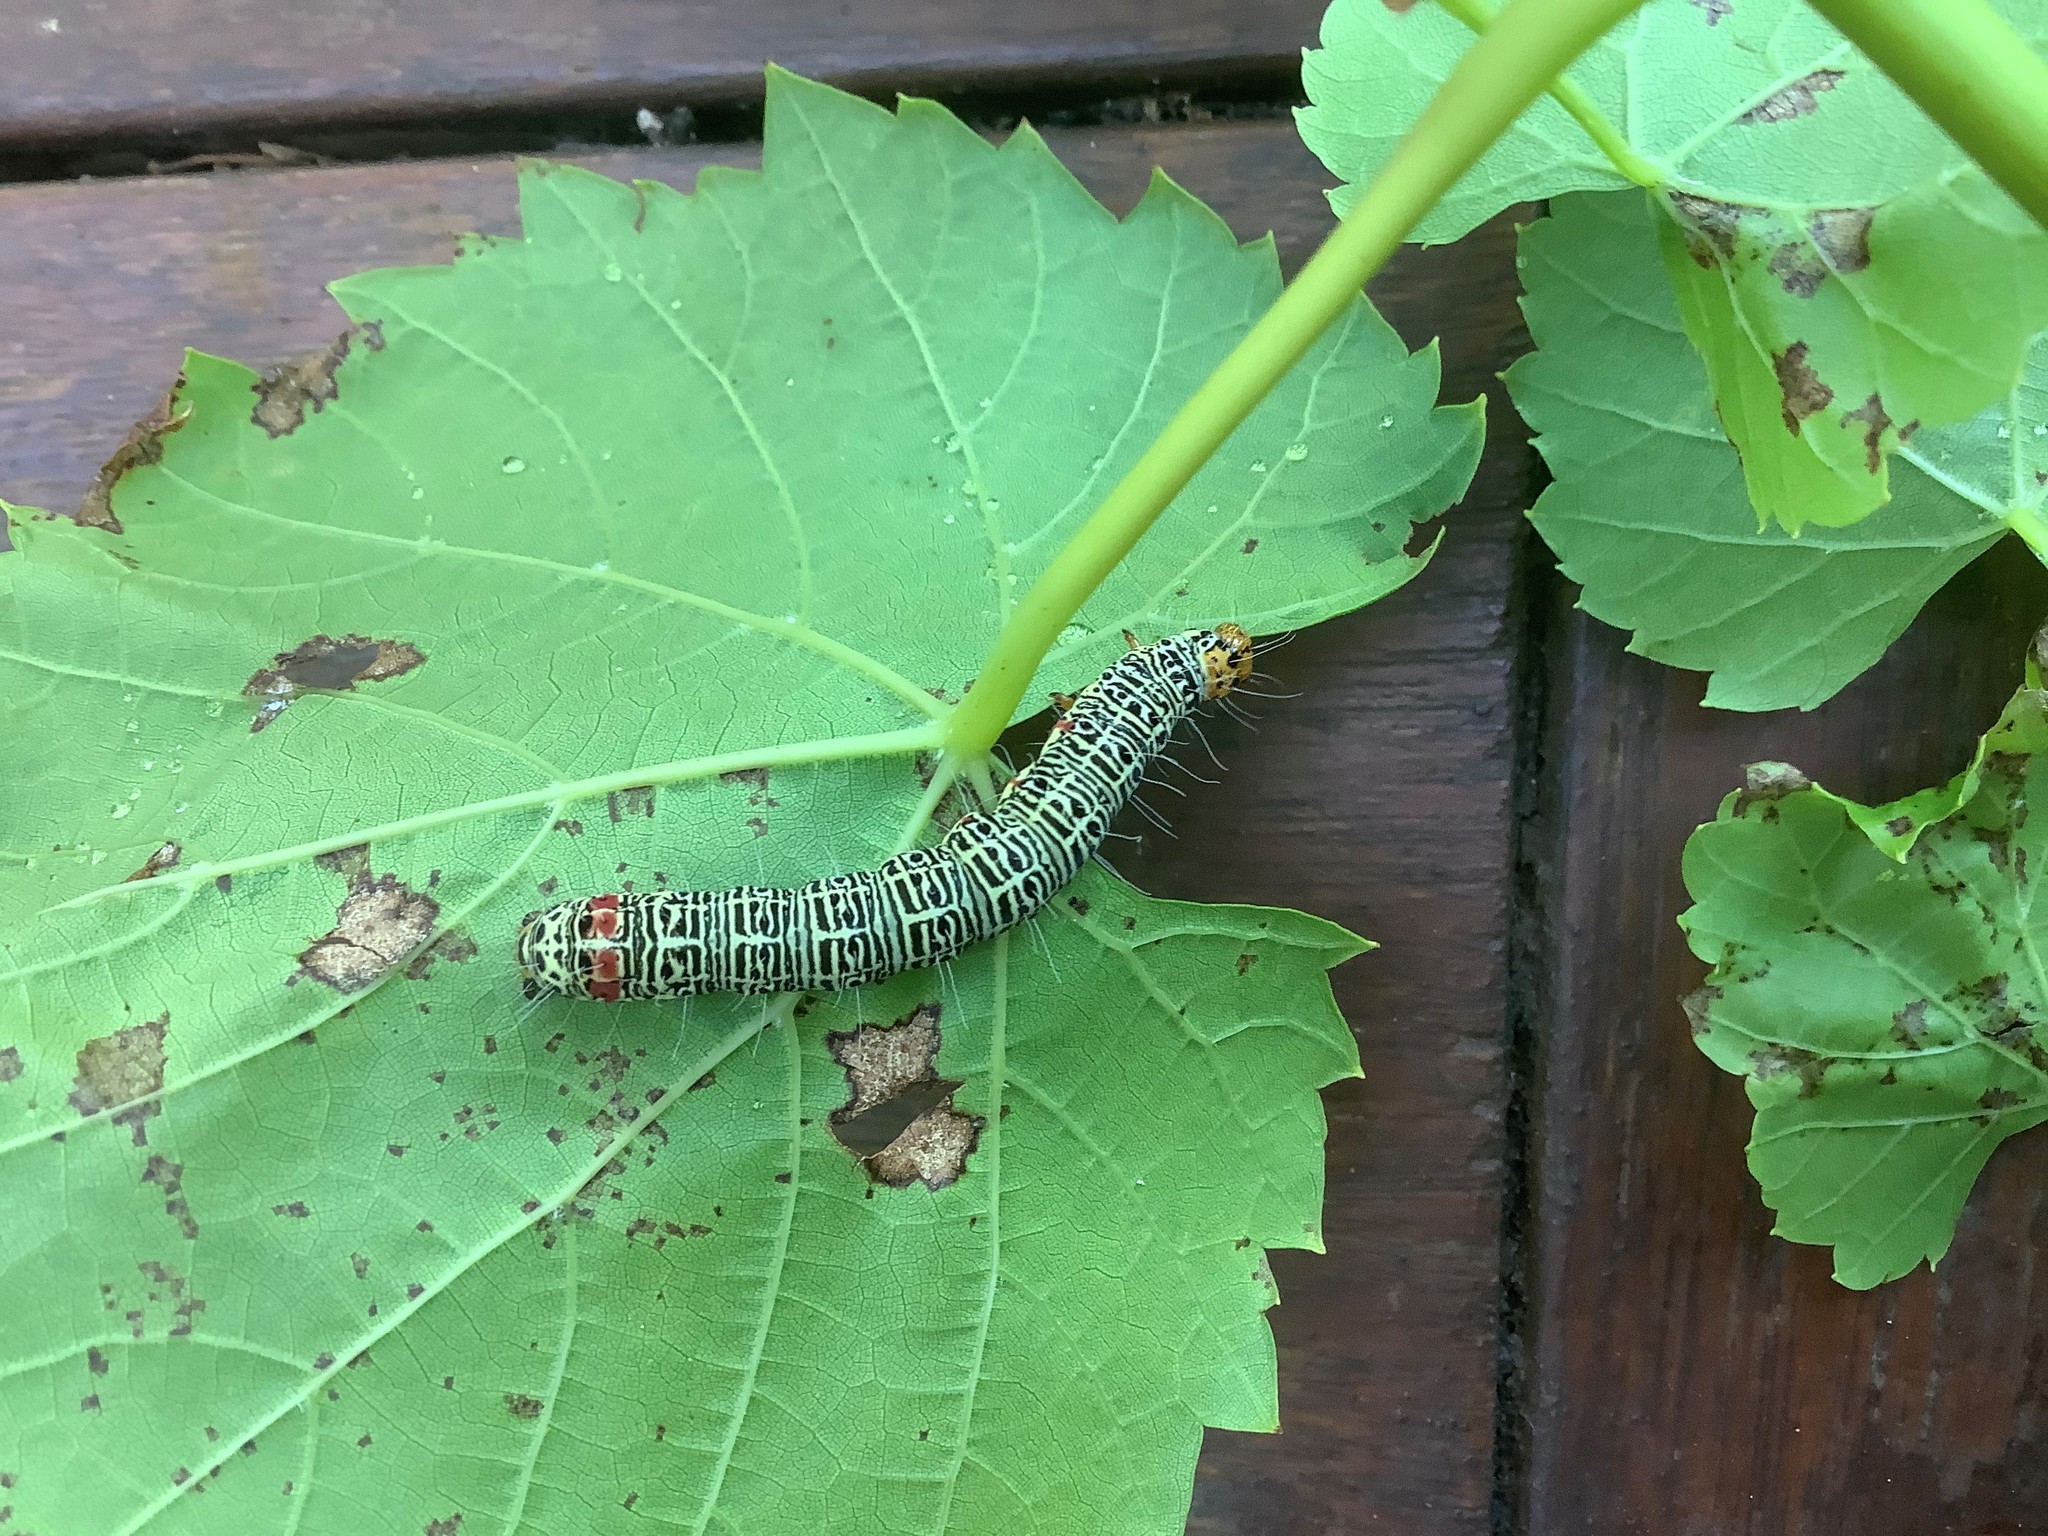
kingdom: Animalia
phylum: Arthropoda
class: Insecta
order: Lepidoptera
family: Noctuidae
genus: Phalaenoides
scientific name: Phalaenoides glycinae
